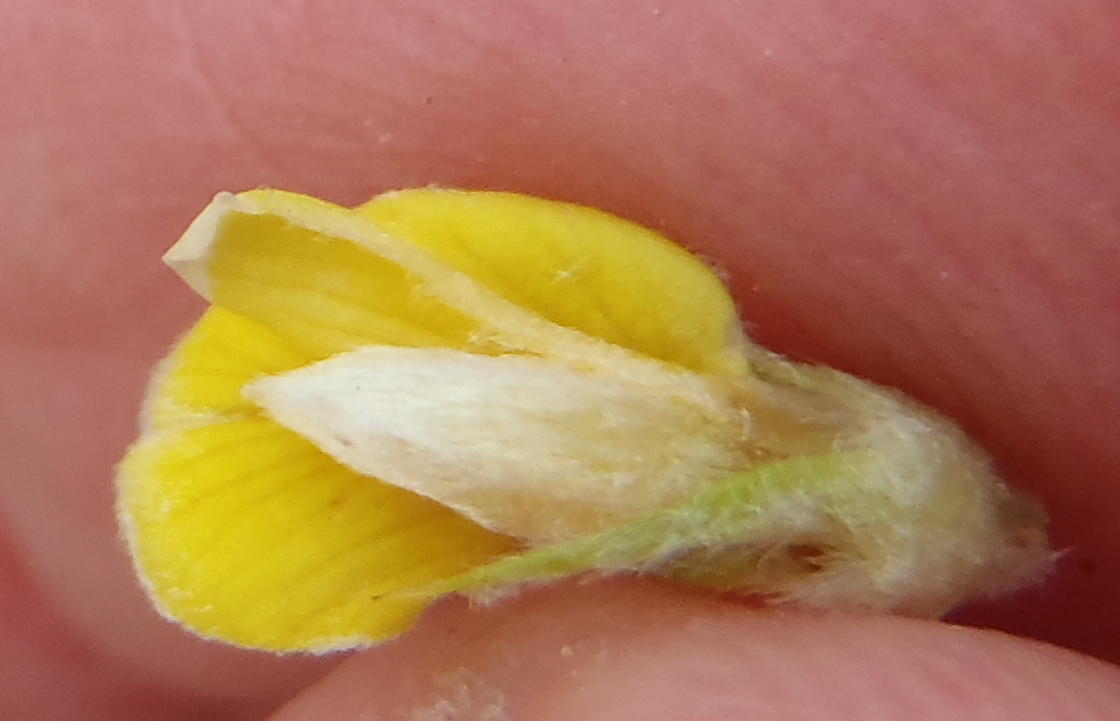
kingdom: Plantae
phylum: Tracheophyta
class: Magnoliopsida
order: Fabales
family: Fabaceae
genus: Aspalathus
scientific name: Aspalathus setacea
